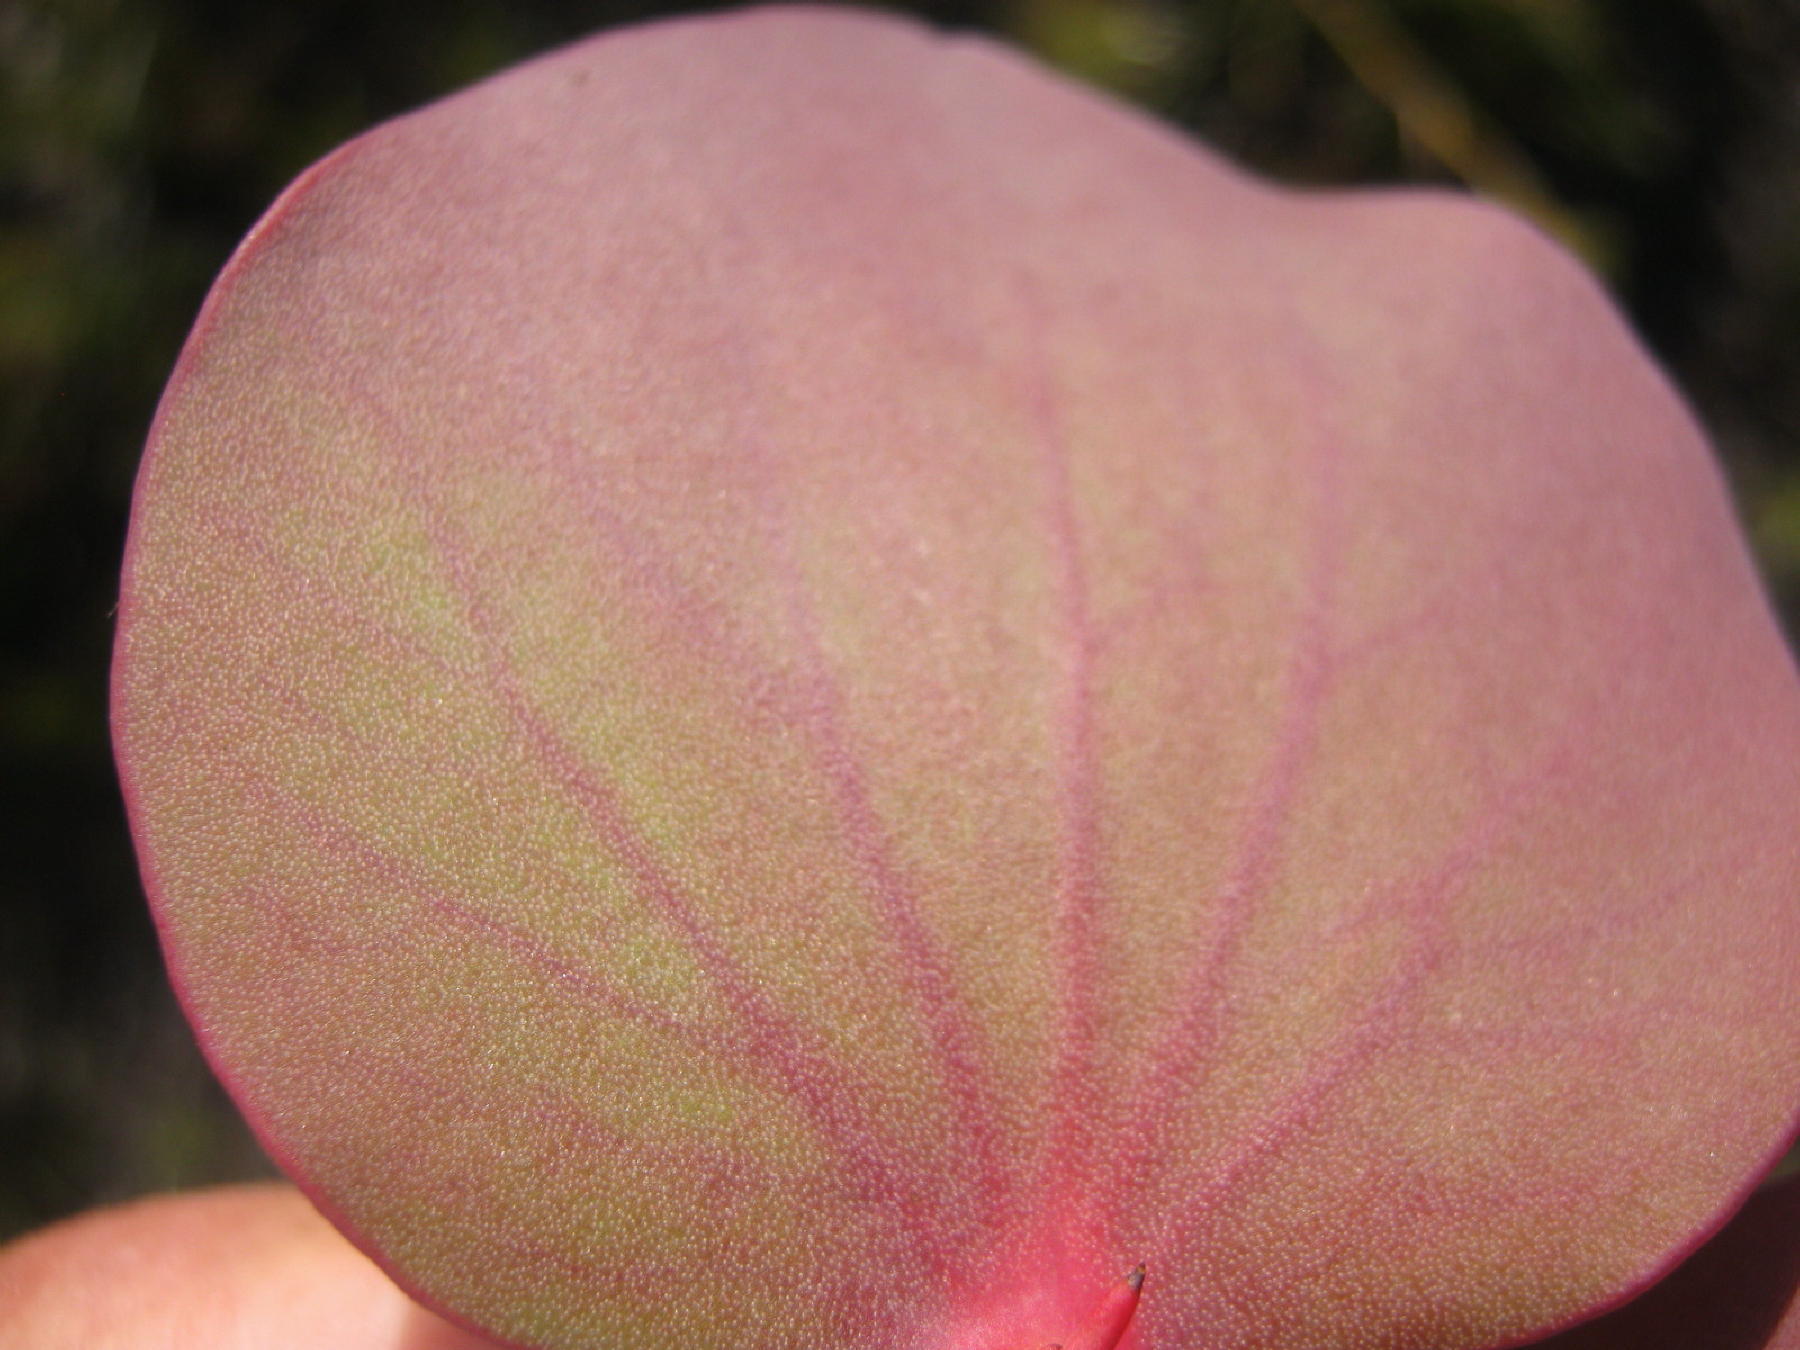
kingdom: Plantae
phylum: Tracheophyta
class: Magnoliopsida
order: Proteales
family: Proteaceae
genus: Protea
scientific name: Protea cordata
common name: Heart-leaf sugarbush
